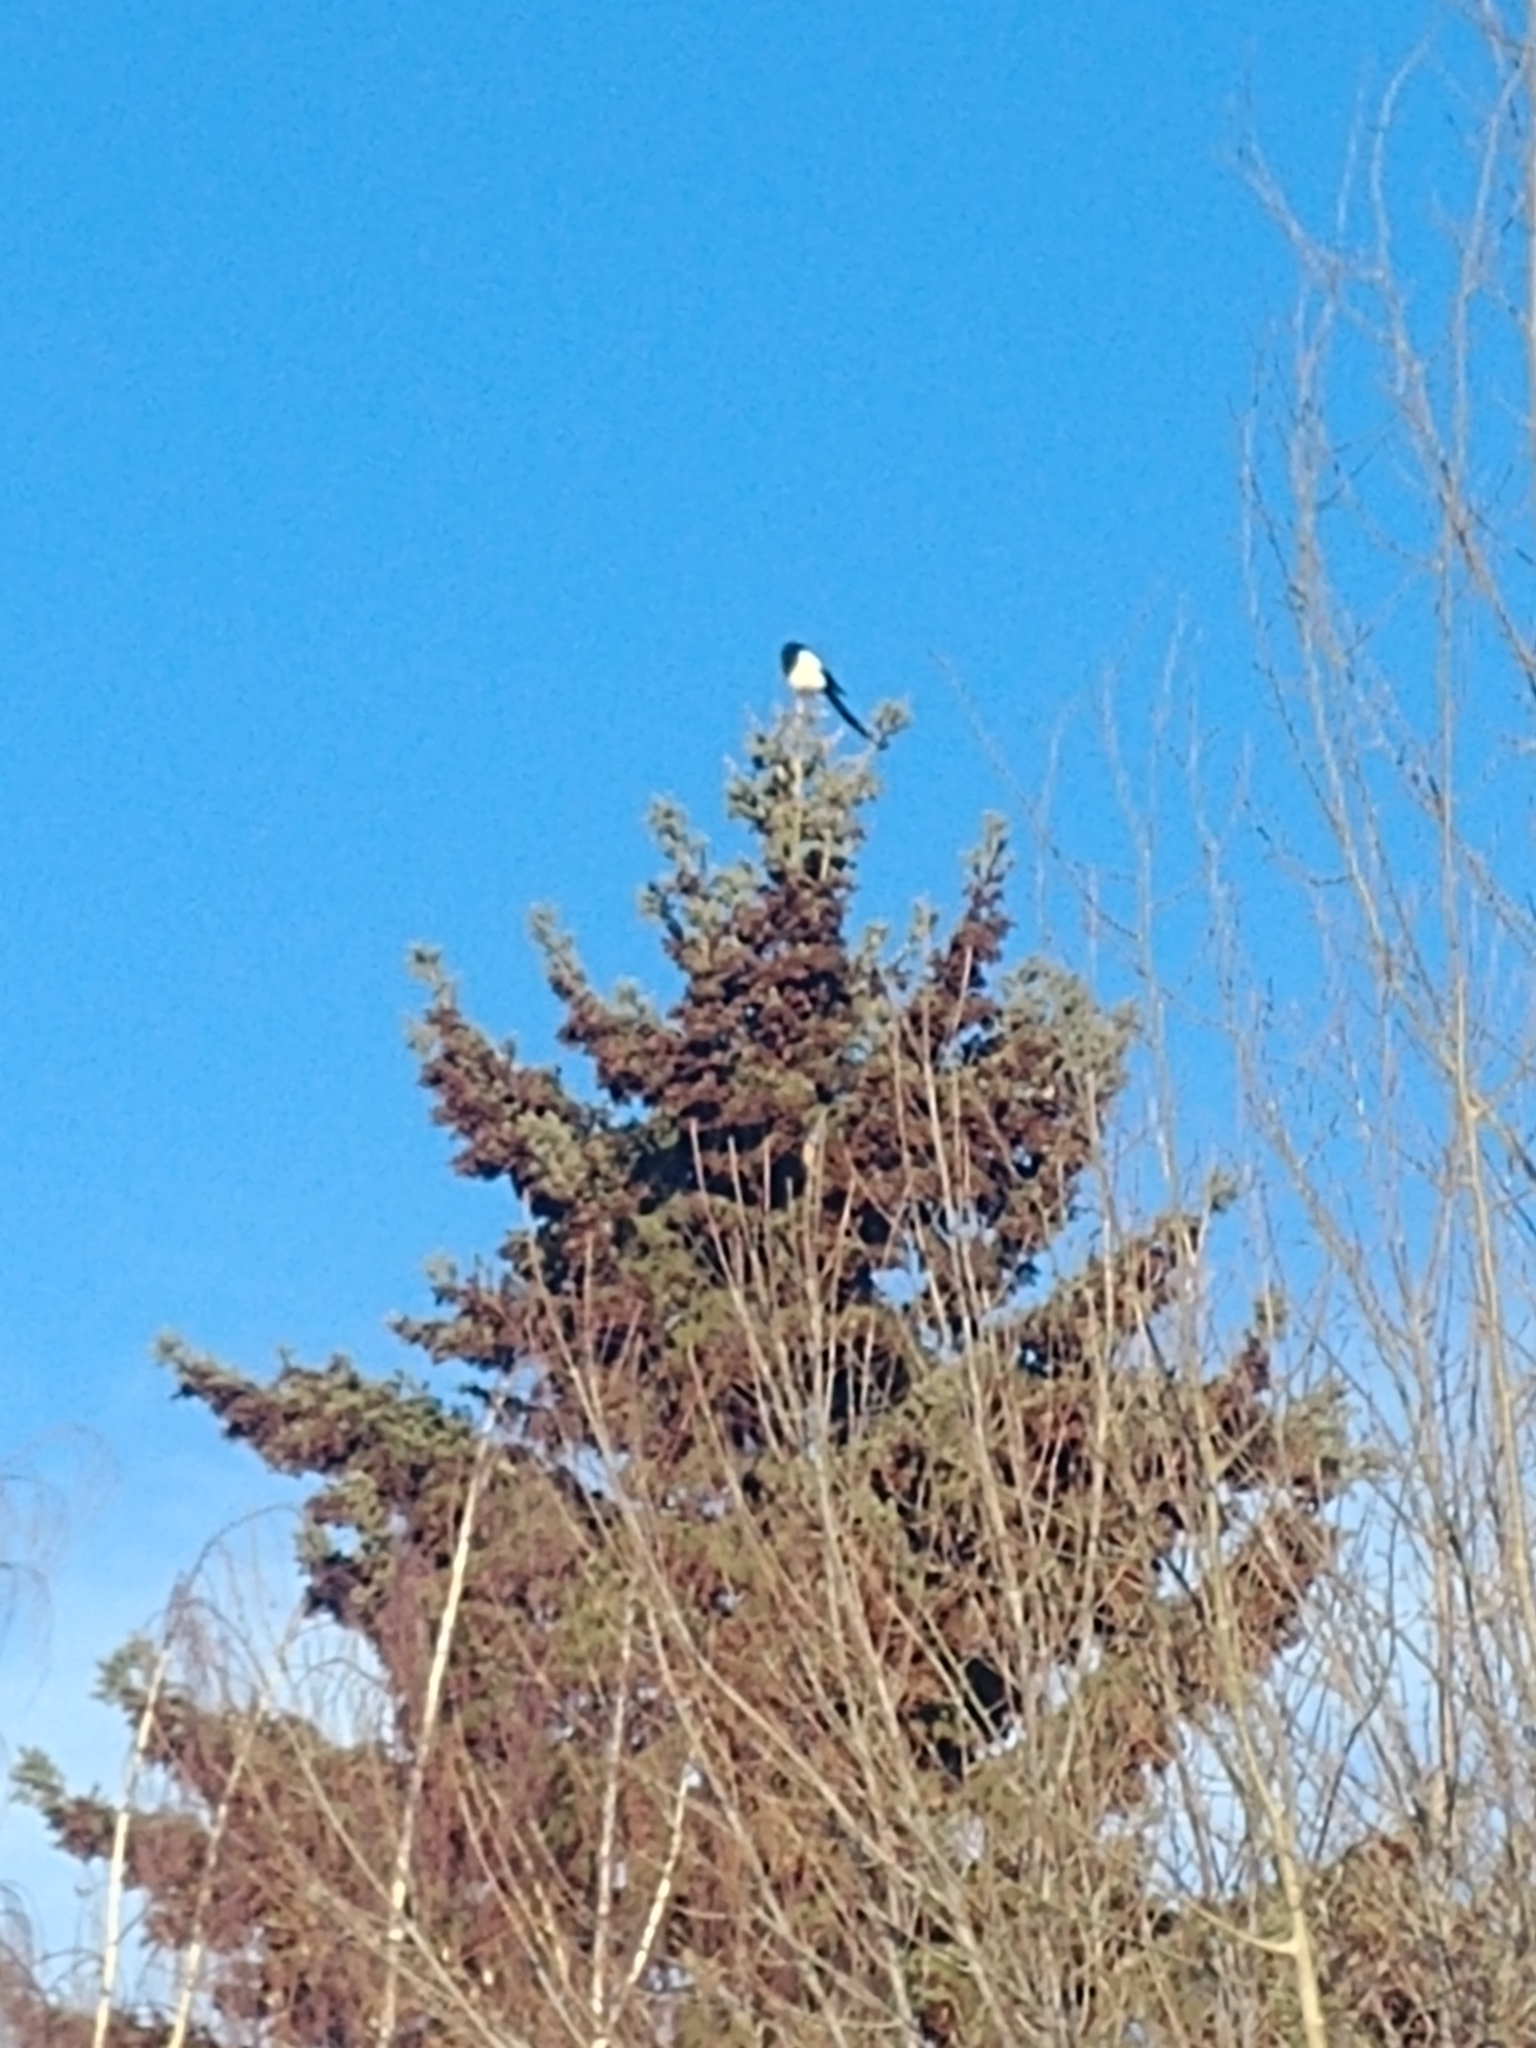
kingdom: Animalia
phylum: Chordata
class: Aves
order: Passeriformes
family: Corvidae
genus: Pica
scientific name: Pica hudsonia
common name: Black-billed magpie
